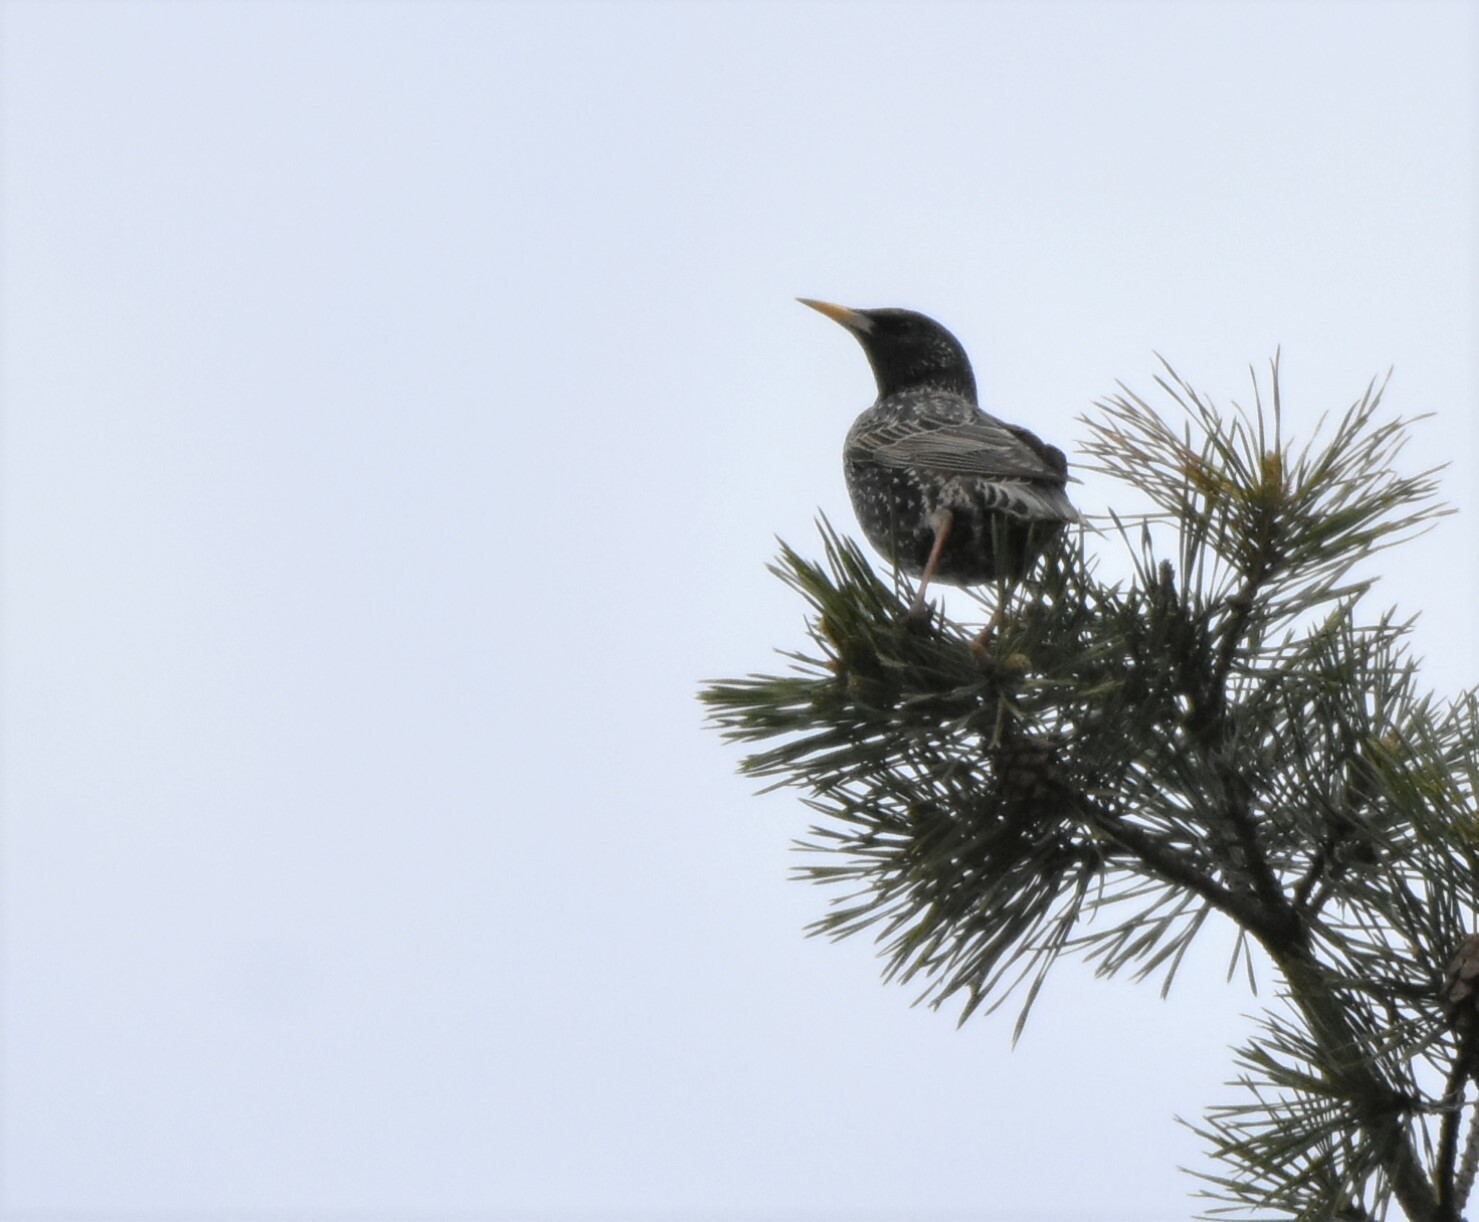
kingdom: Animalia
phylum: Chordata
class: Aves
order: Passeriformes
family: Sturnidae
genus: Sturnus
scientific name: Sturnus vulgaris
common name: Common starling
